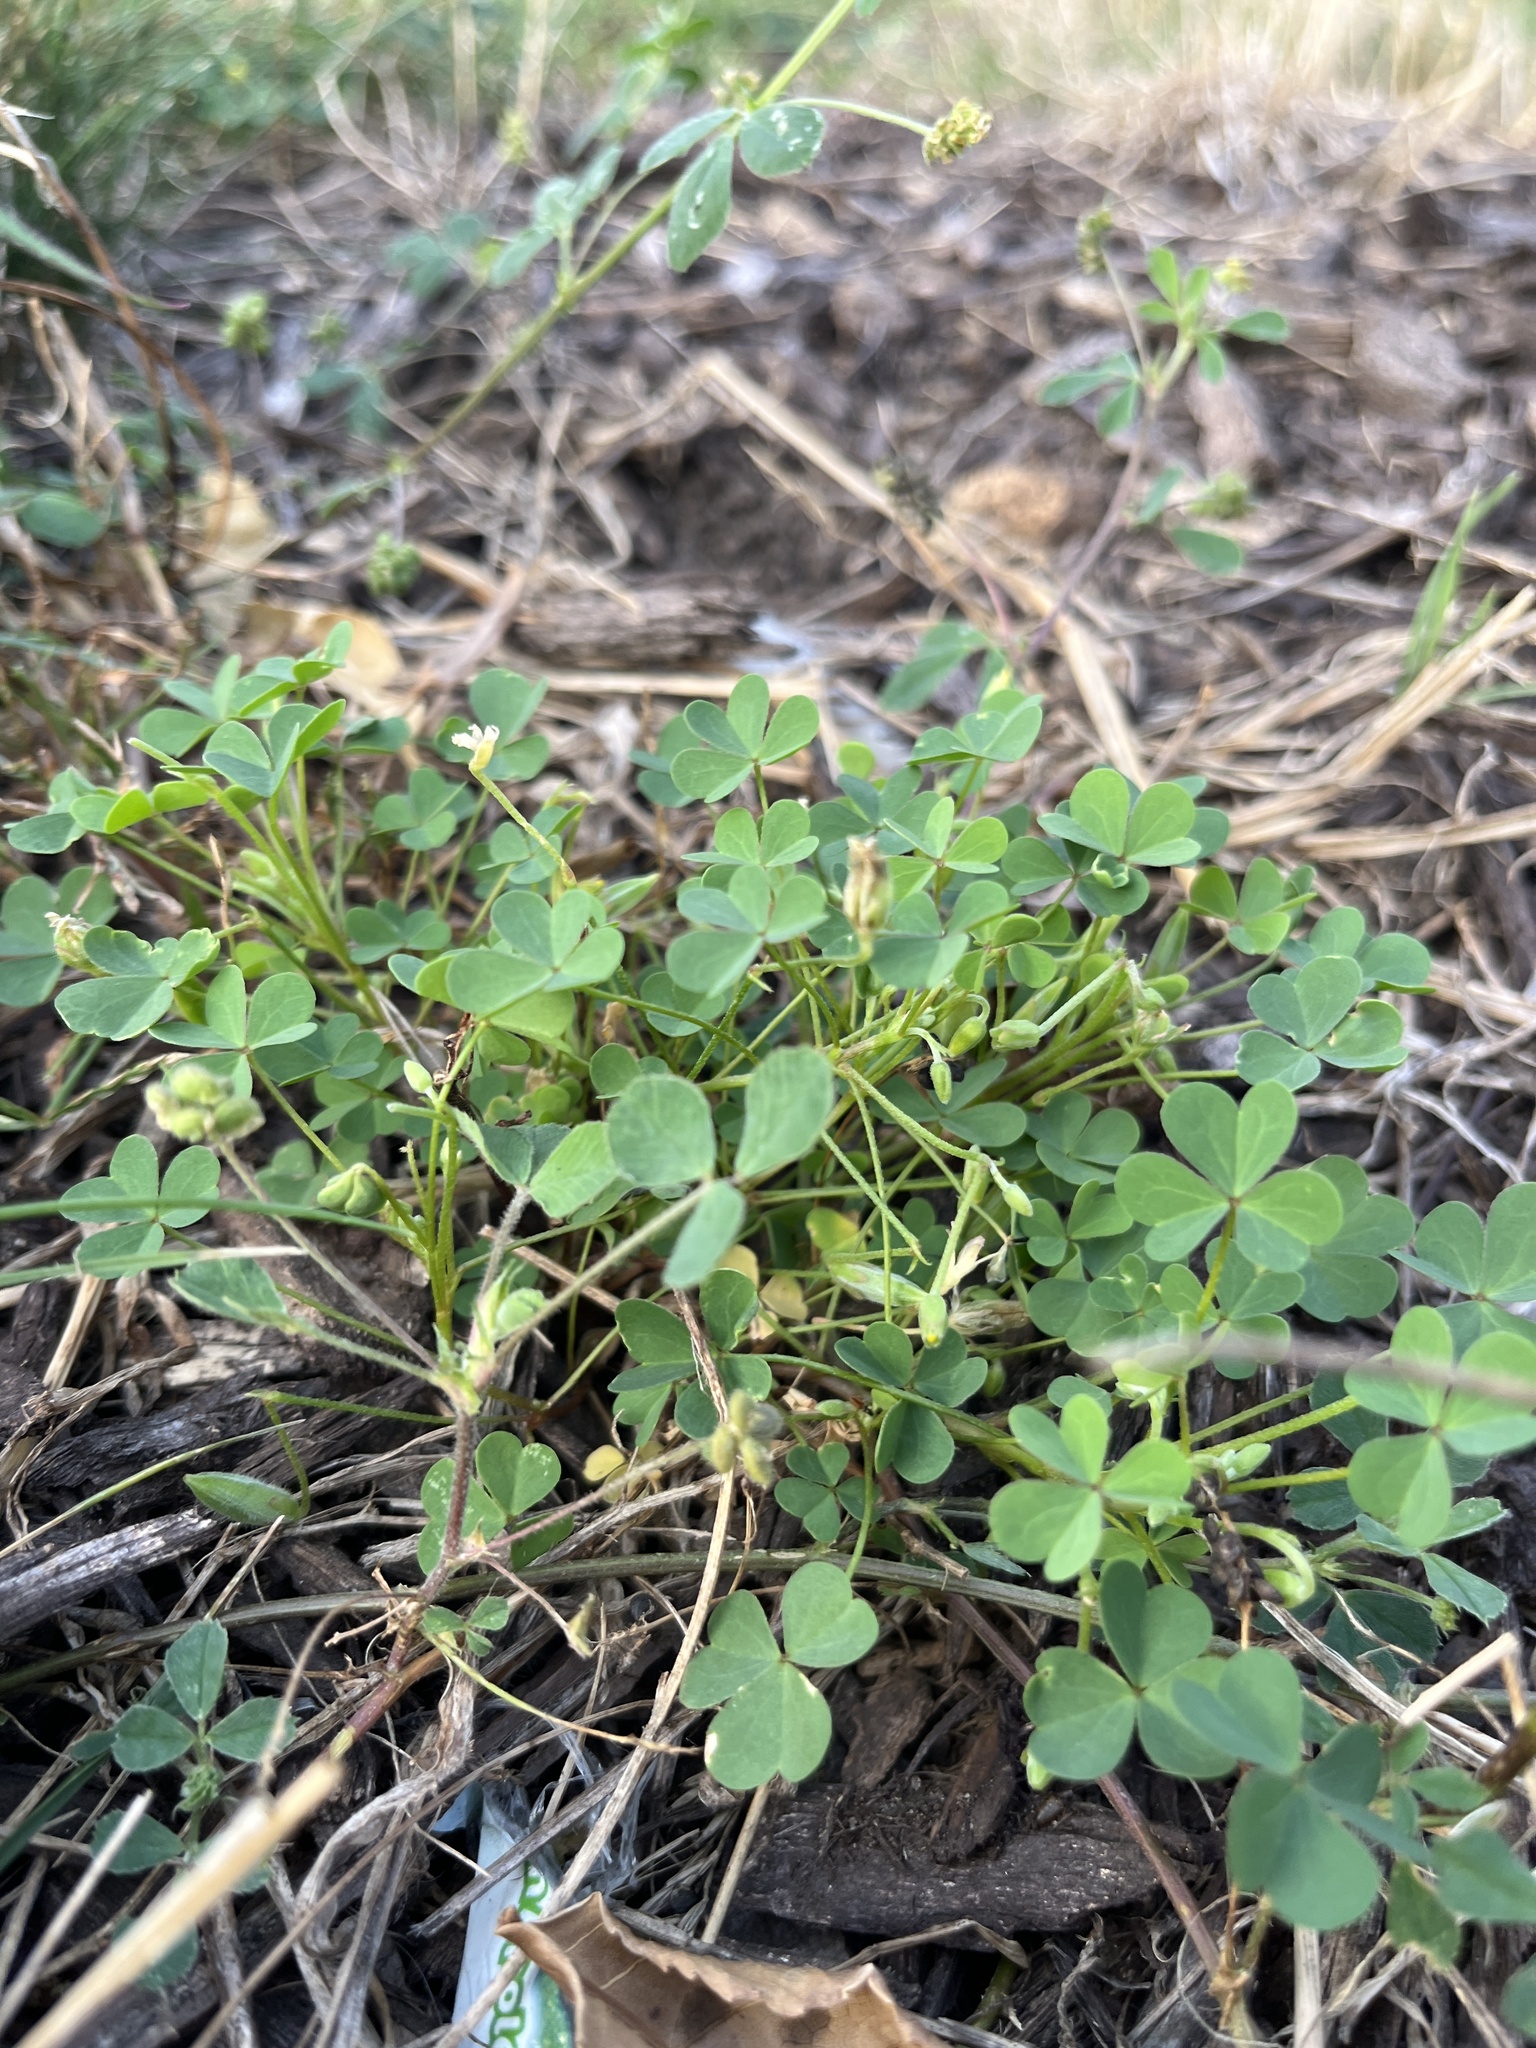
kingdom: Plantae
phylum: Tracheophyta
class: Magnoliopsida
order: Oxalidales
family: Oxalidaceae
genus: Oxalis
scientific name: Oxalis dillenii
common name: Sussex yellow-sorrel
